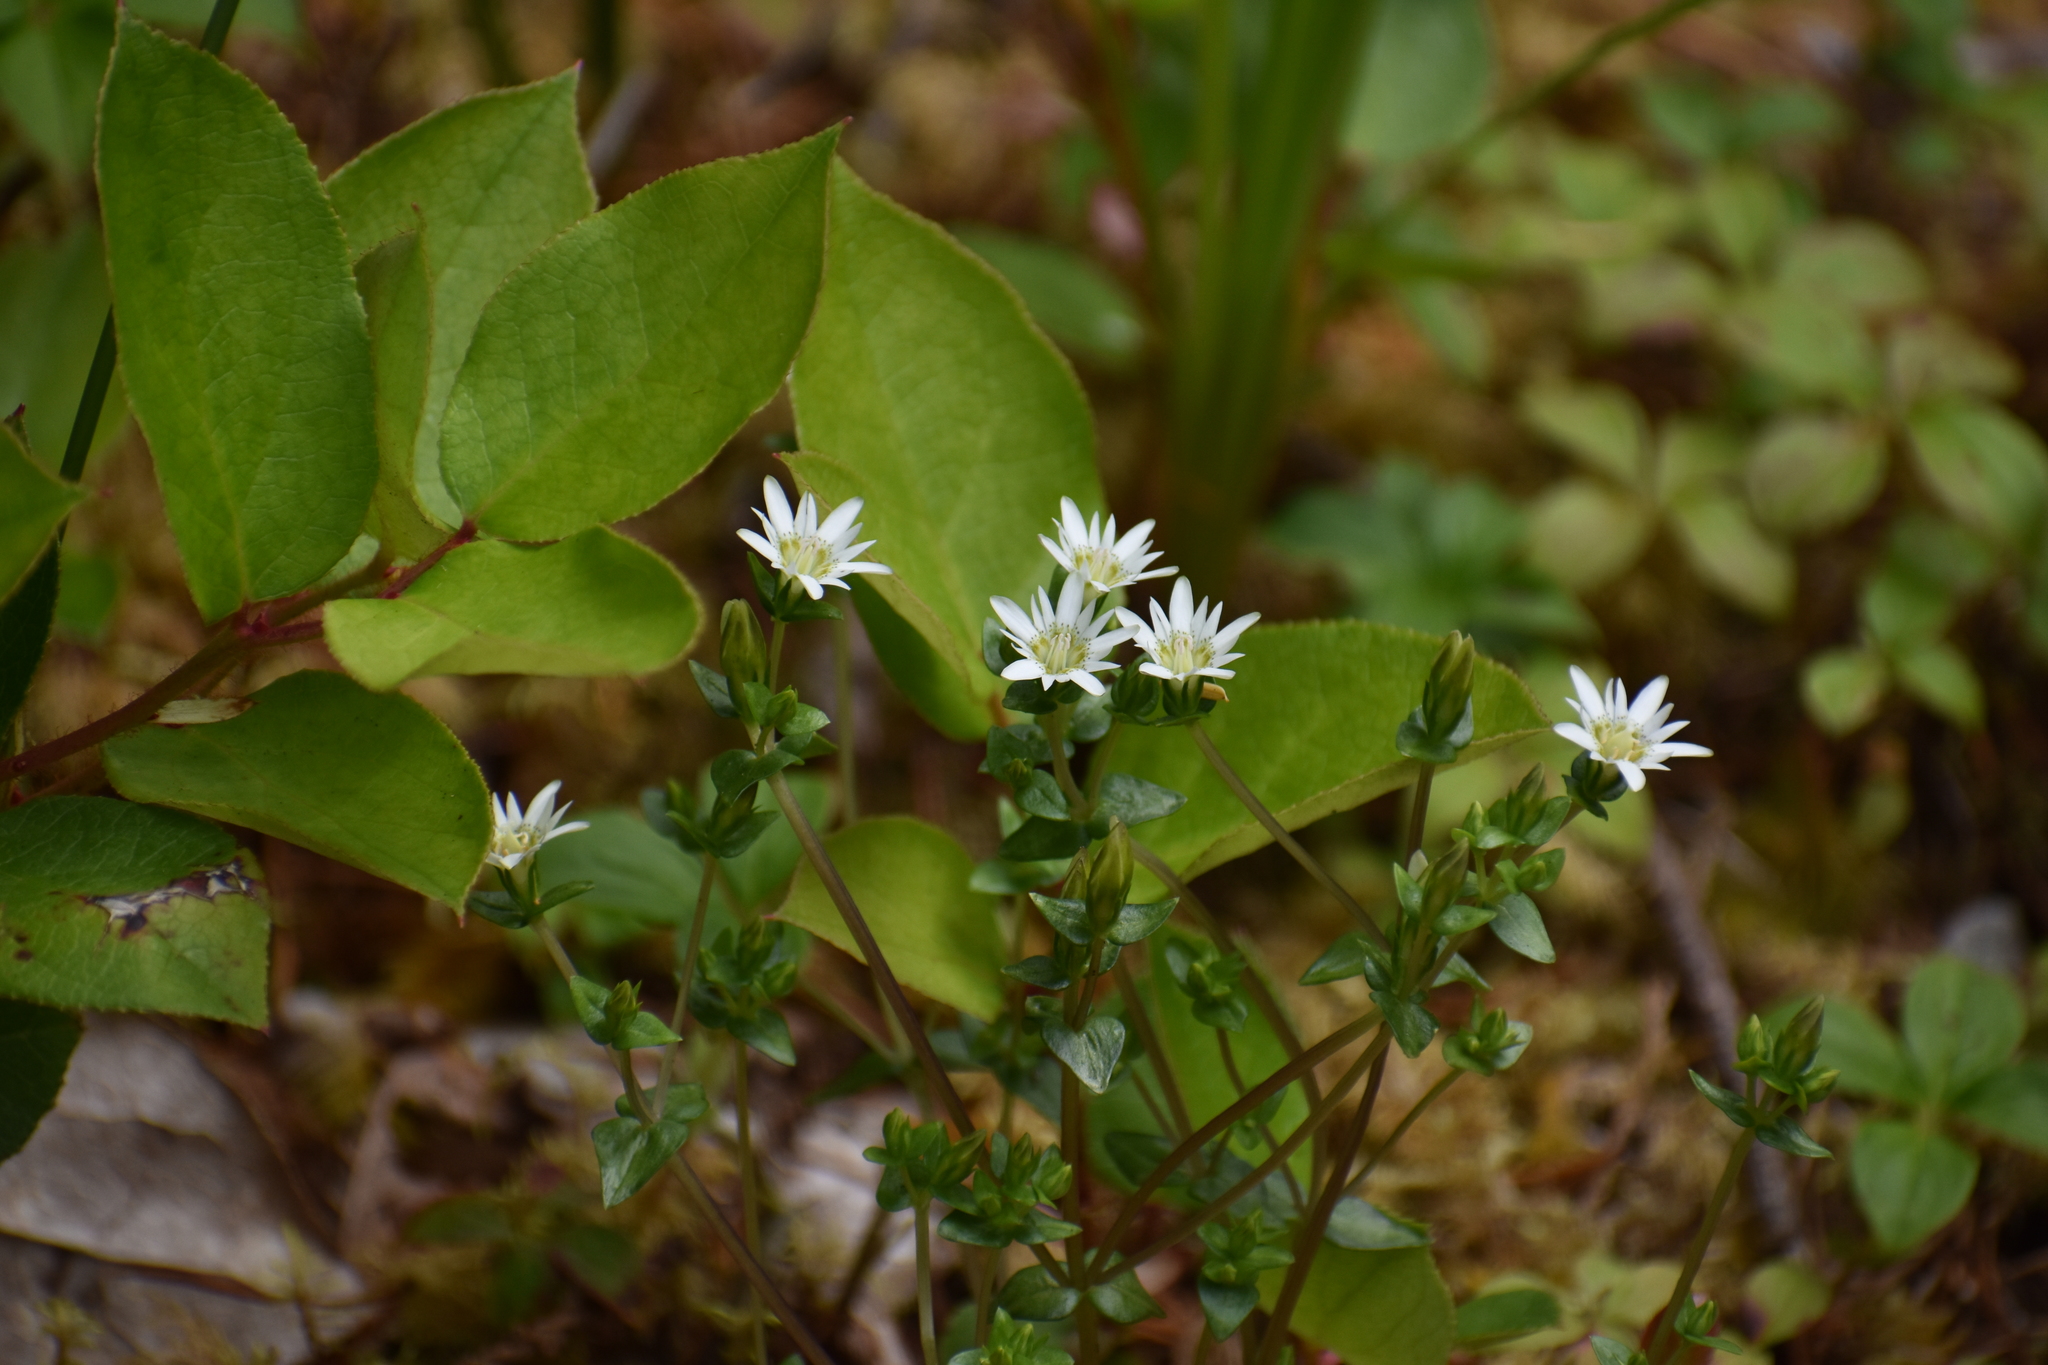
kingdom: Plantae
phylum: Tracheophyta
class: Magnoliopsida
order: Gentianales
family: Gentianaceae
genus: Gentiana
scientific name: Gentiana douglasiana
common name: Swamp gentian
